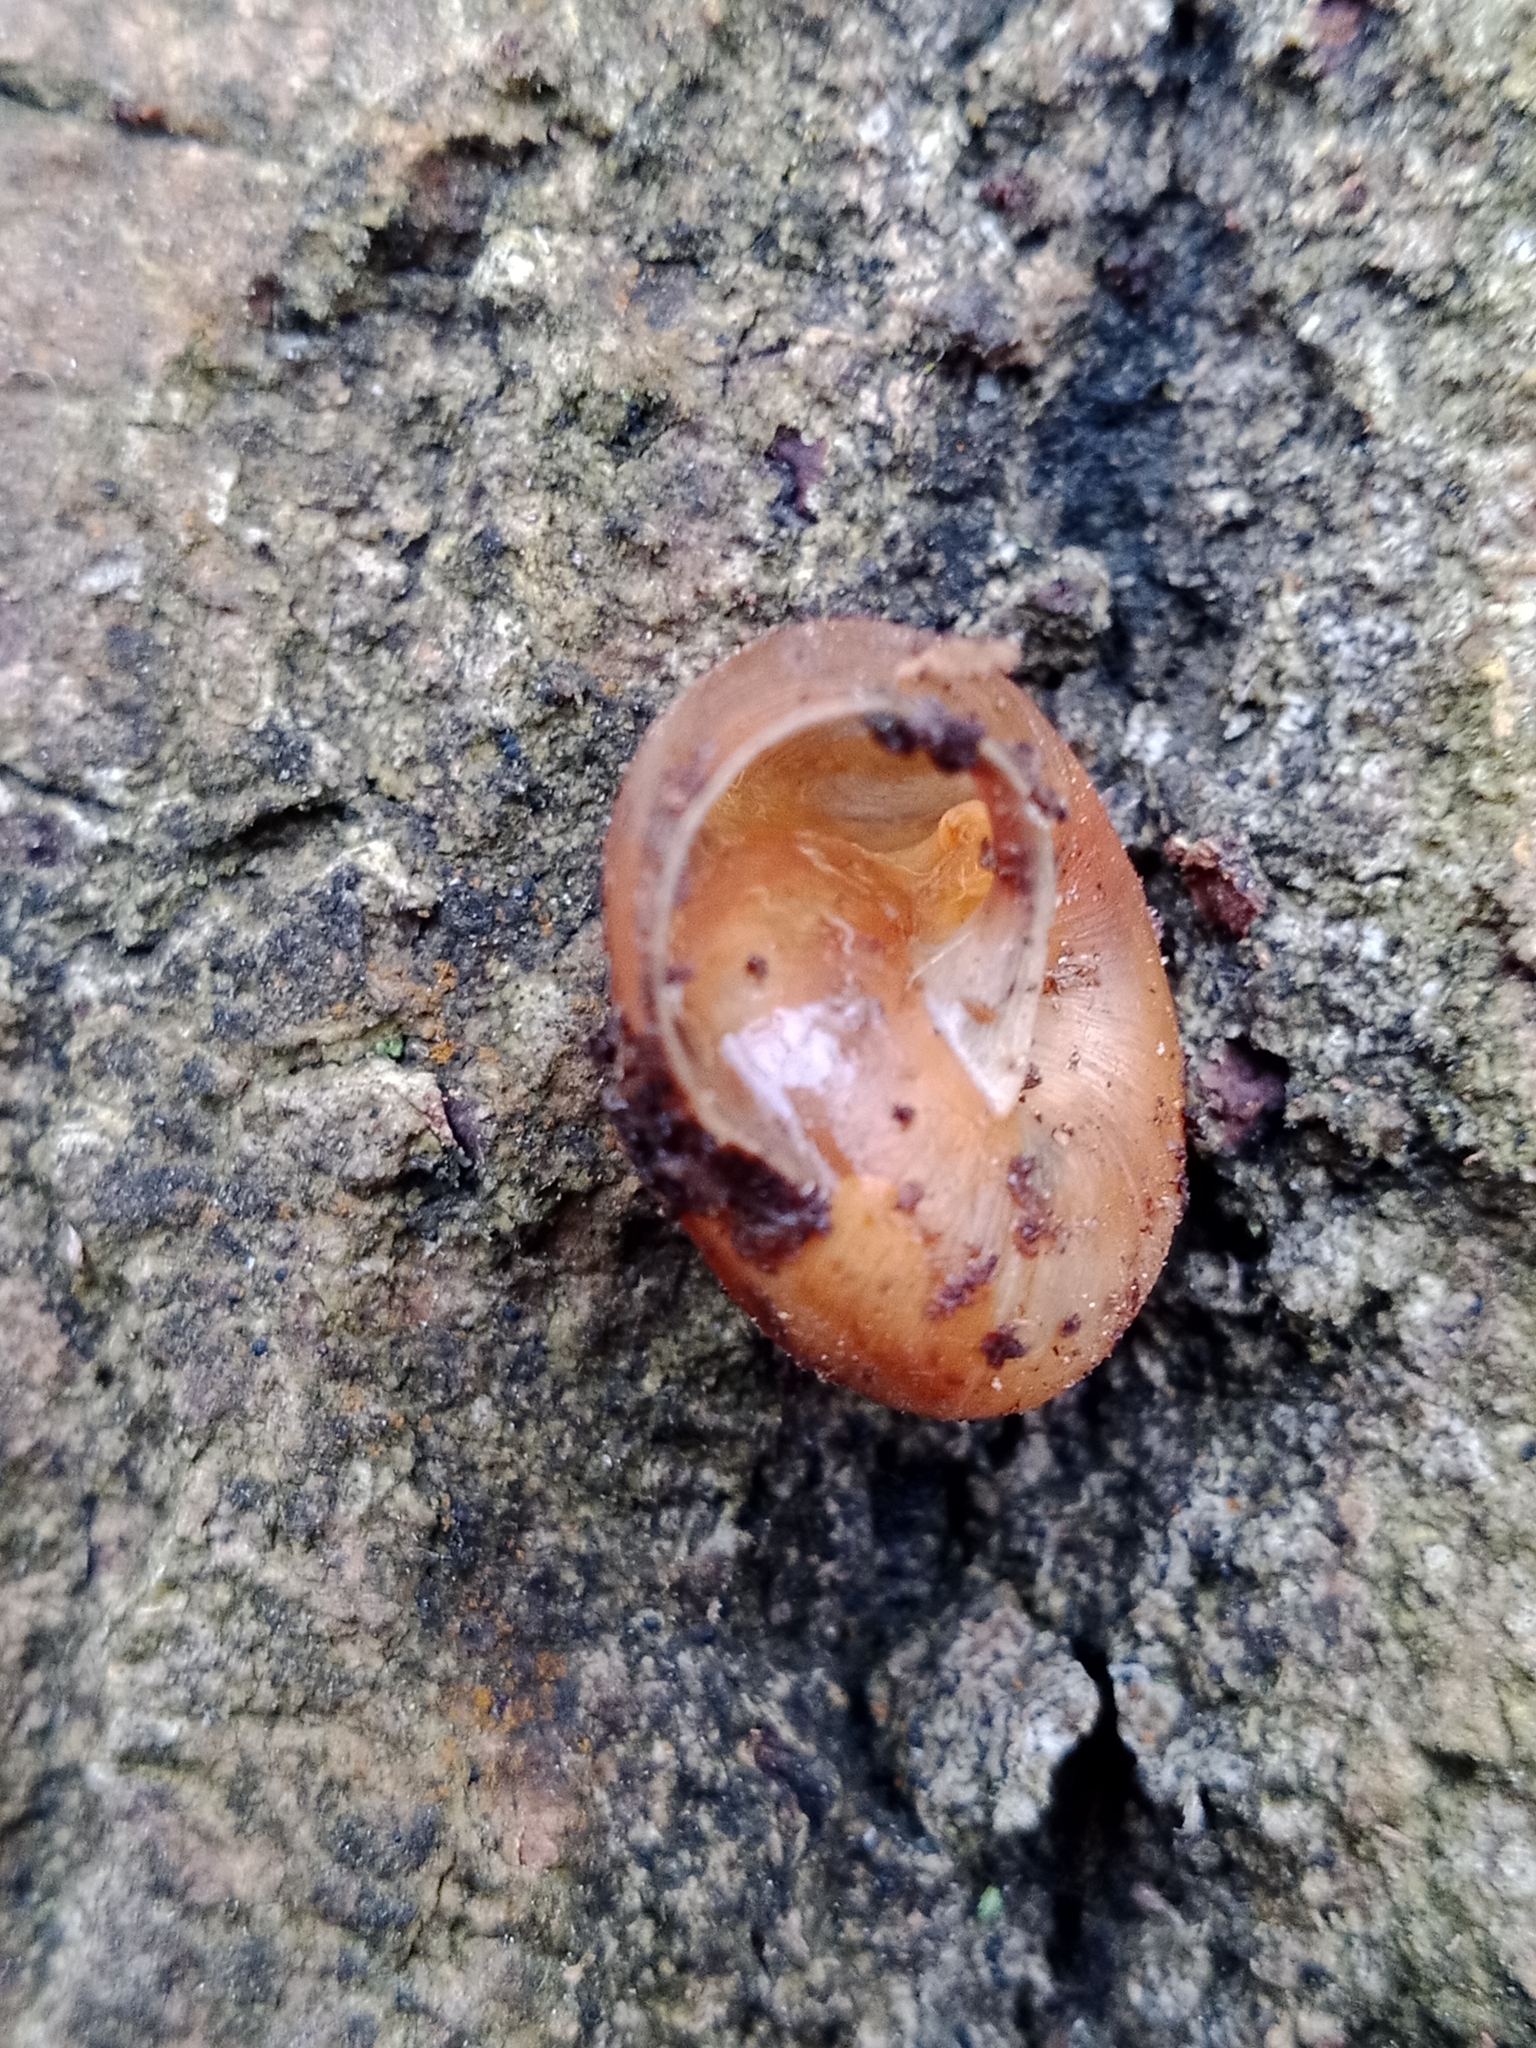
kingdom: Animalia
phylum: Mollusca
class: Gastropoda
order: Stylommatophora
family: Hygromiidae
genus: Euomphalia
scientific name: Euomphalia strigella
